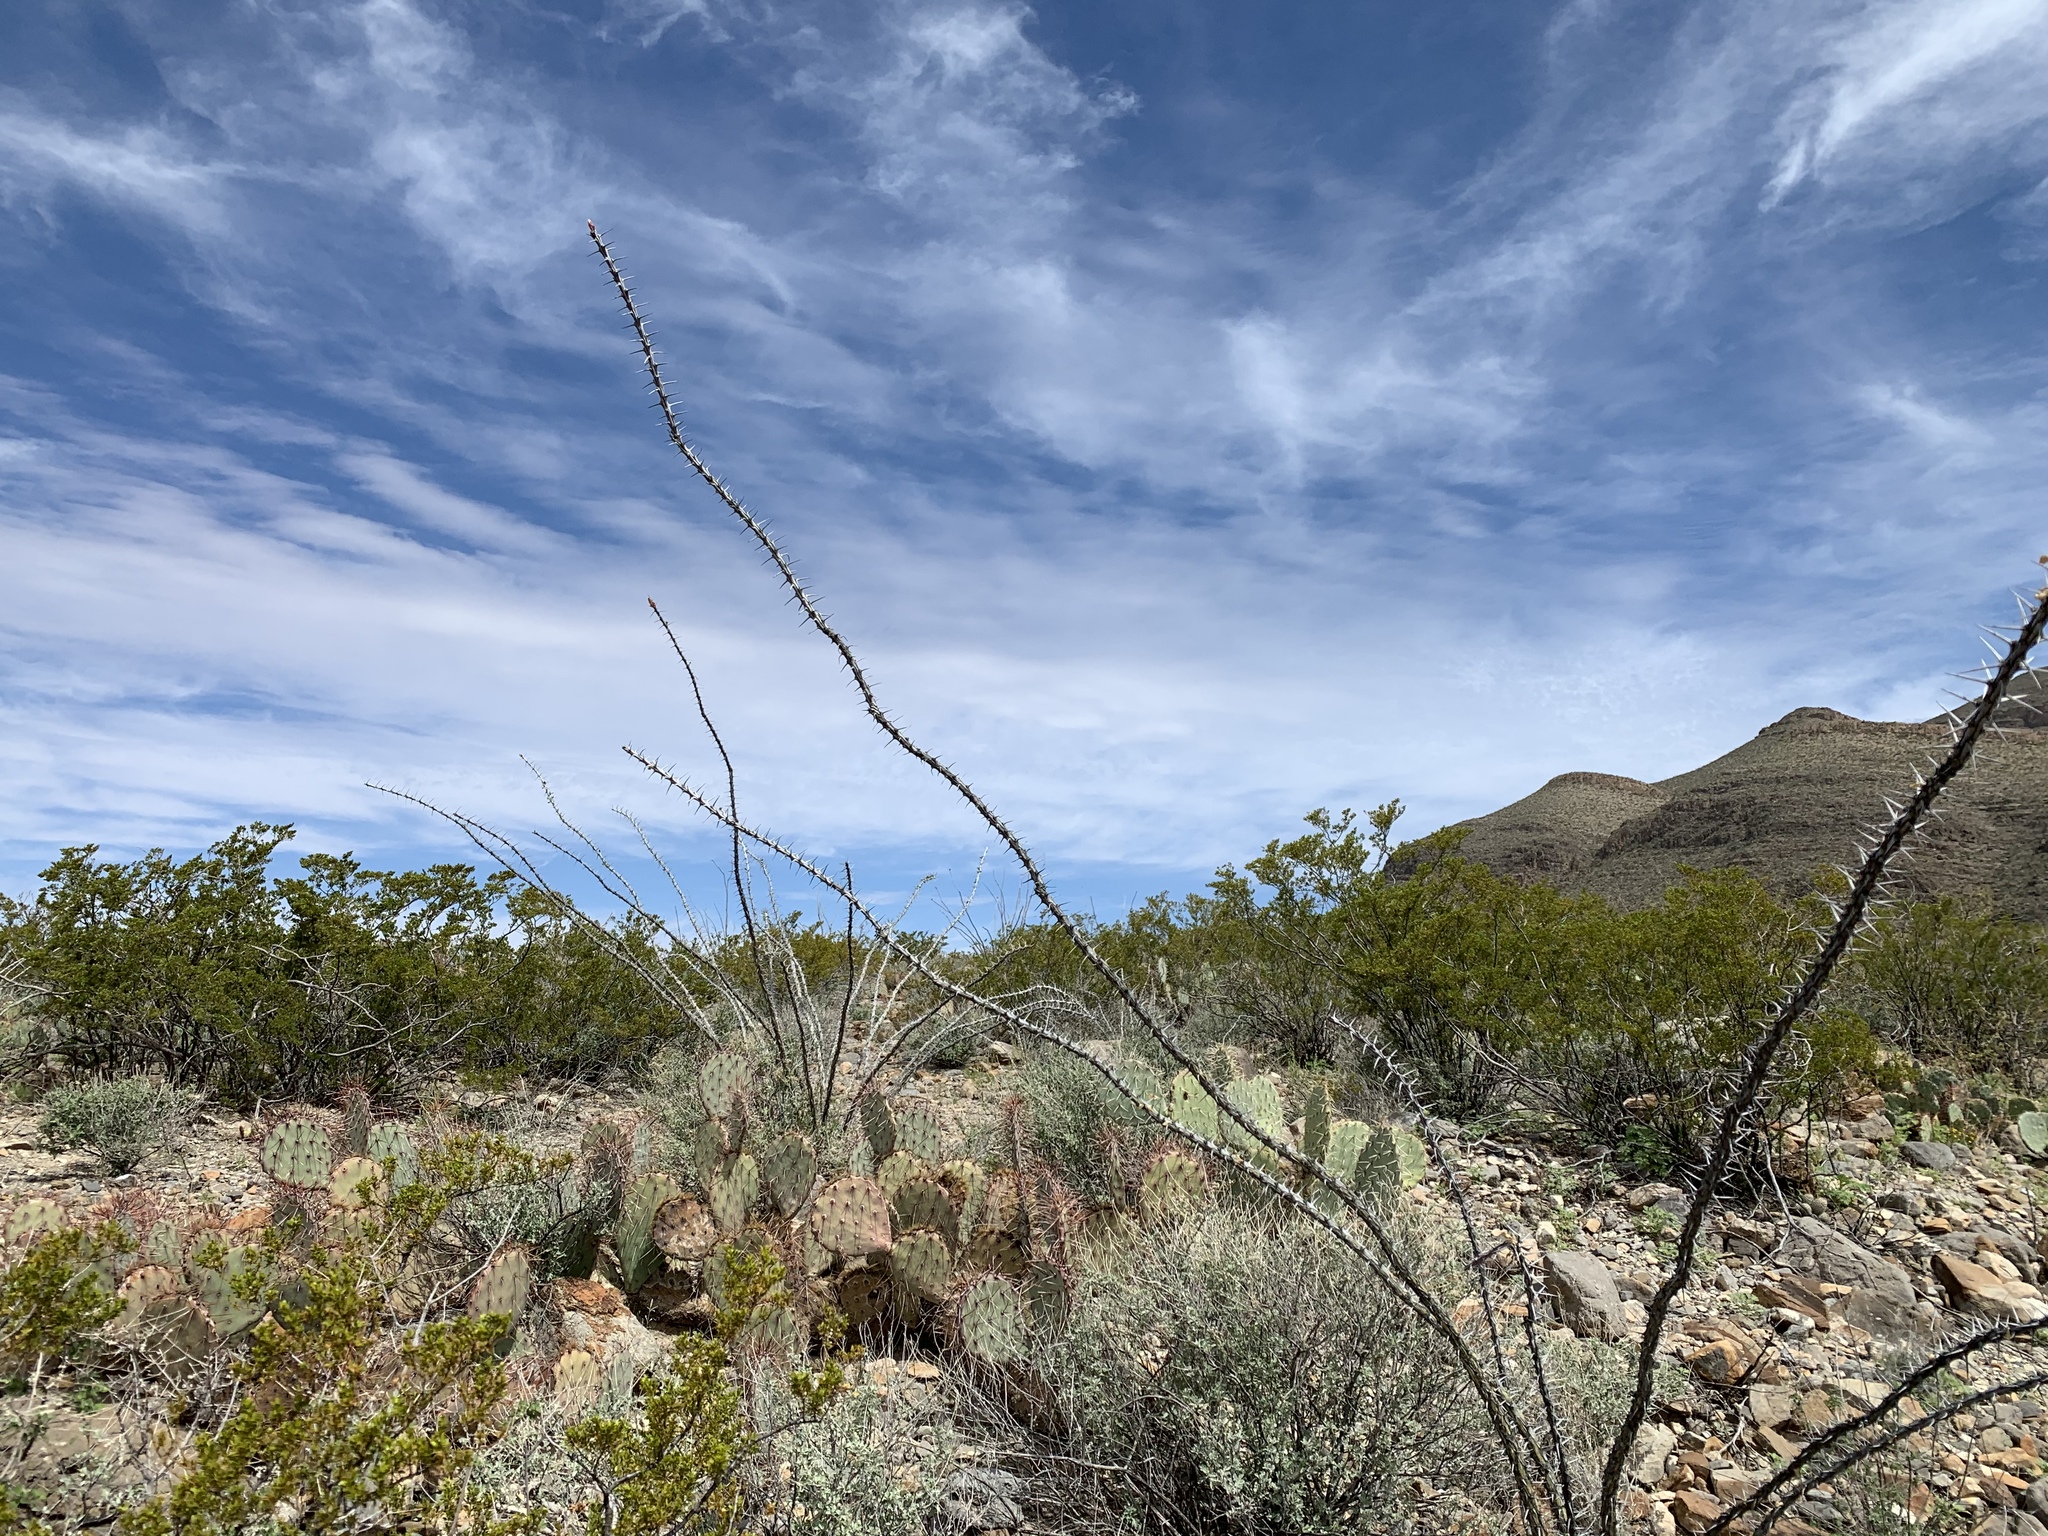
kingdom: Plantae
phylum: Tracheophyta
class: Magnoliopsida
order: Ericales
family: Fouquieriaceae
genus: Fouquieria
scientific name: Fouquieria splendens
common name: Vine-cactus
